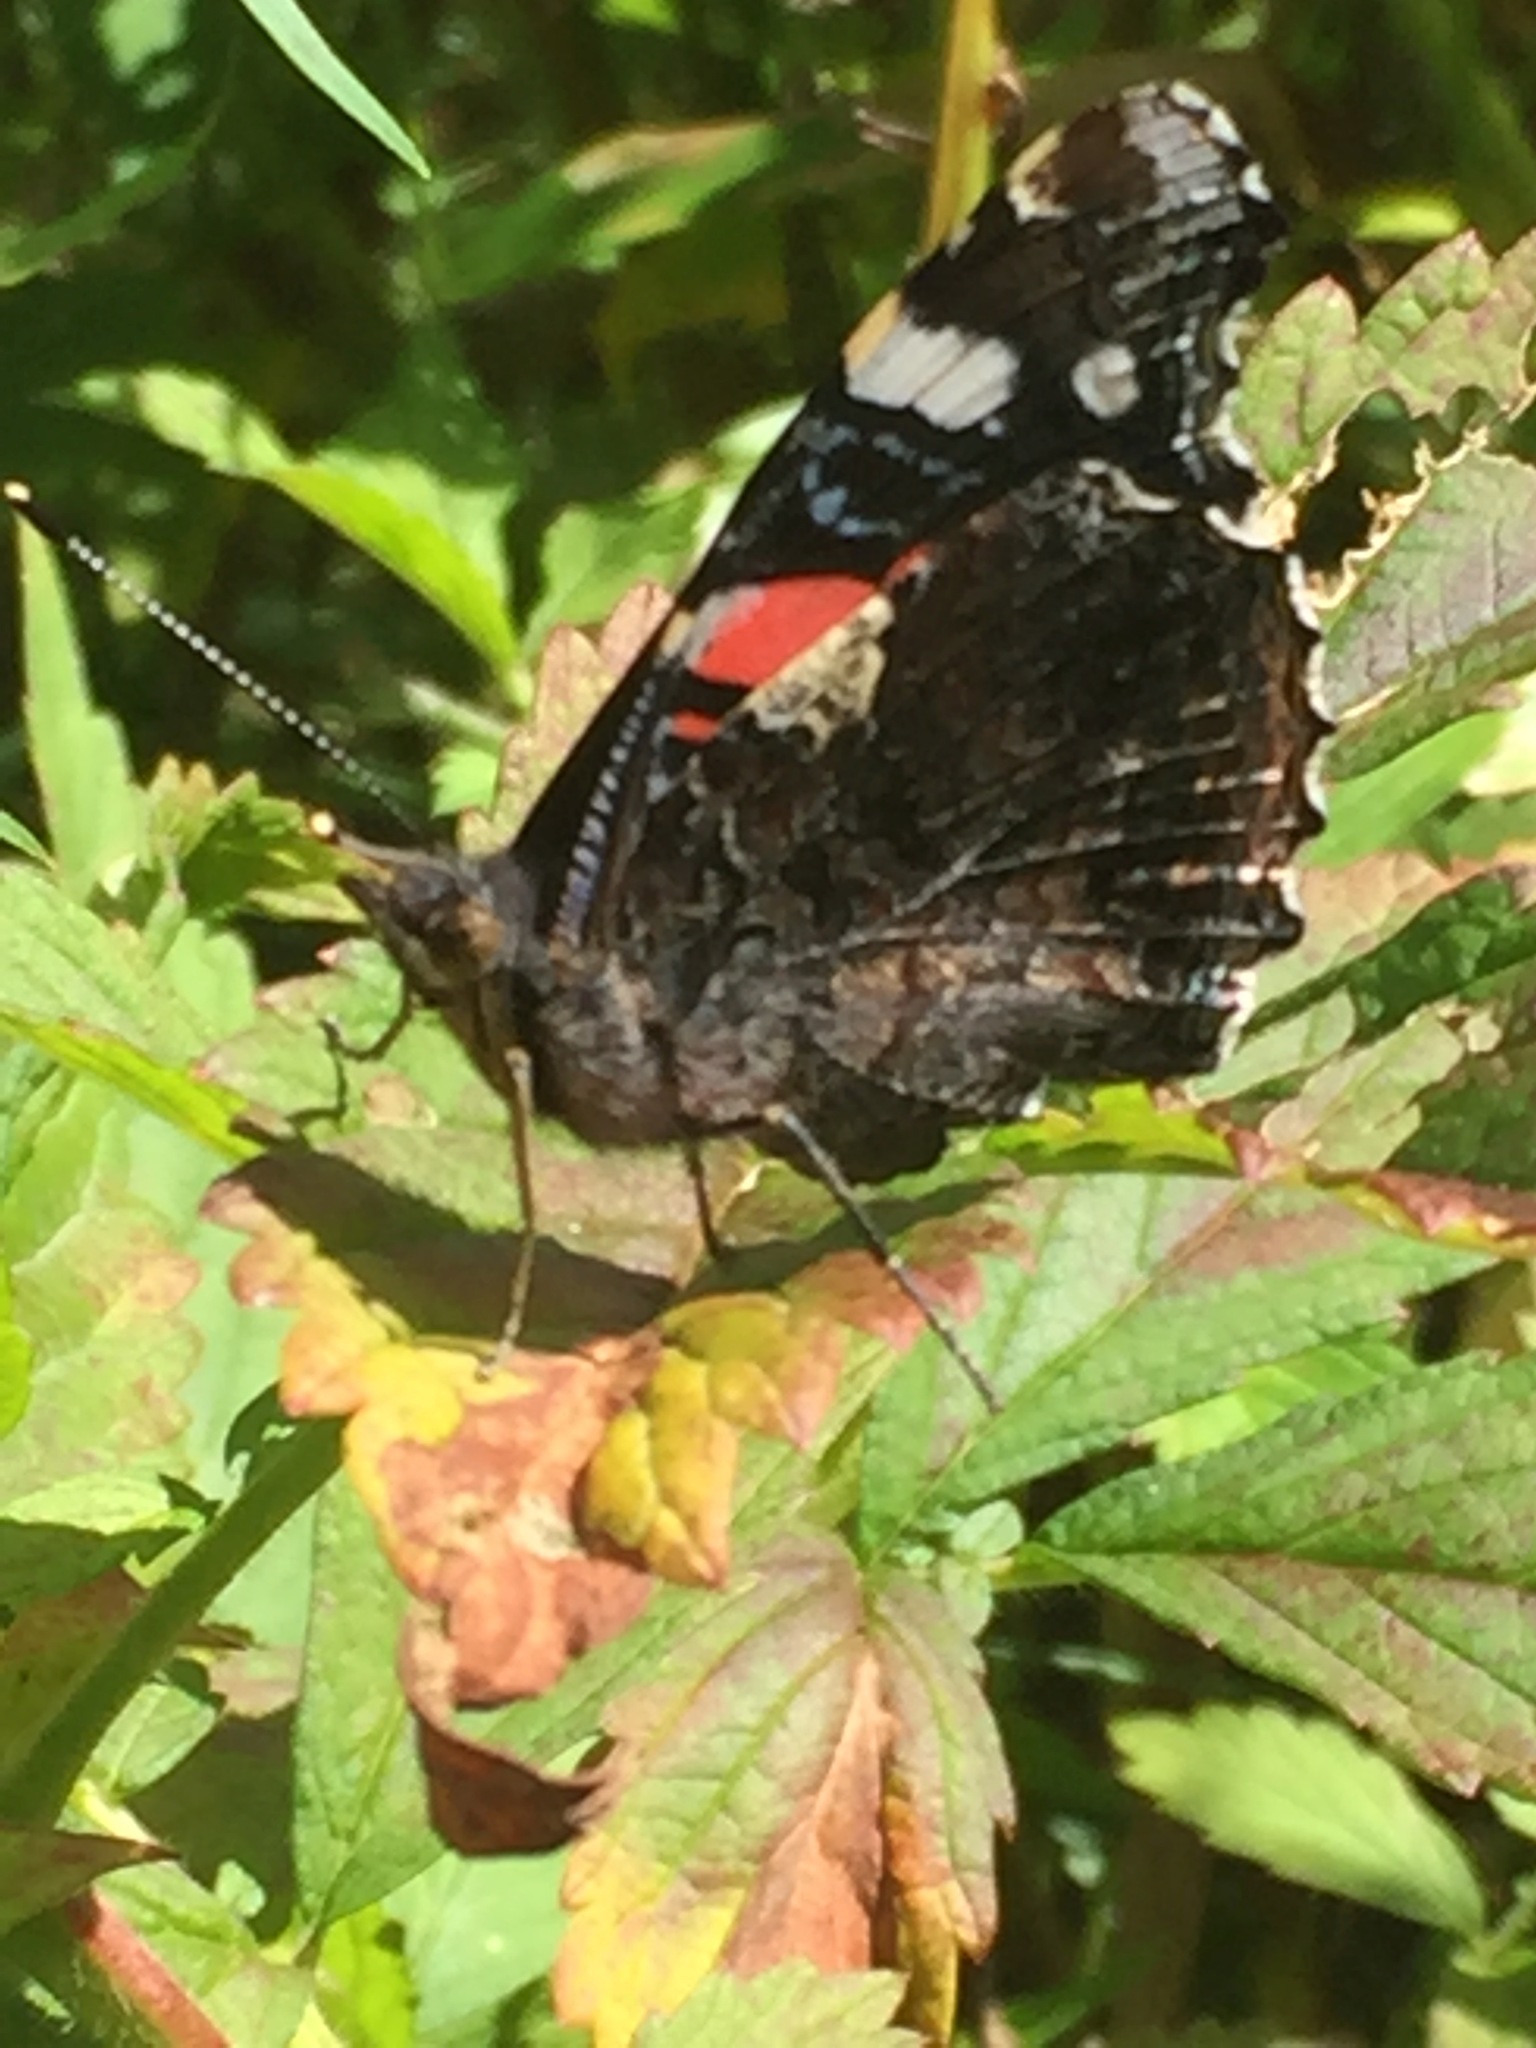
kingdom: Animalia
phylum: Arthropoda
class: Insecta
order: Lepidoptera
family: Nymphalidae
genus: Vanessa
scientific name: Vanessa atalanta
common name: Red admiral
